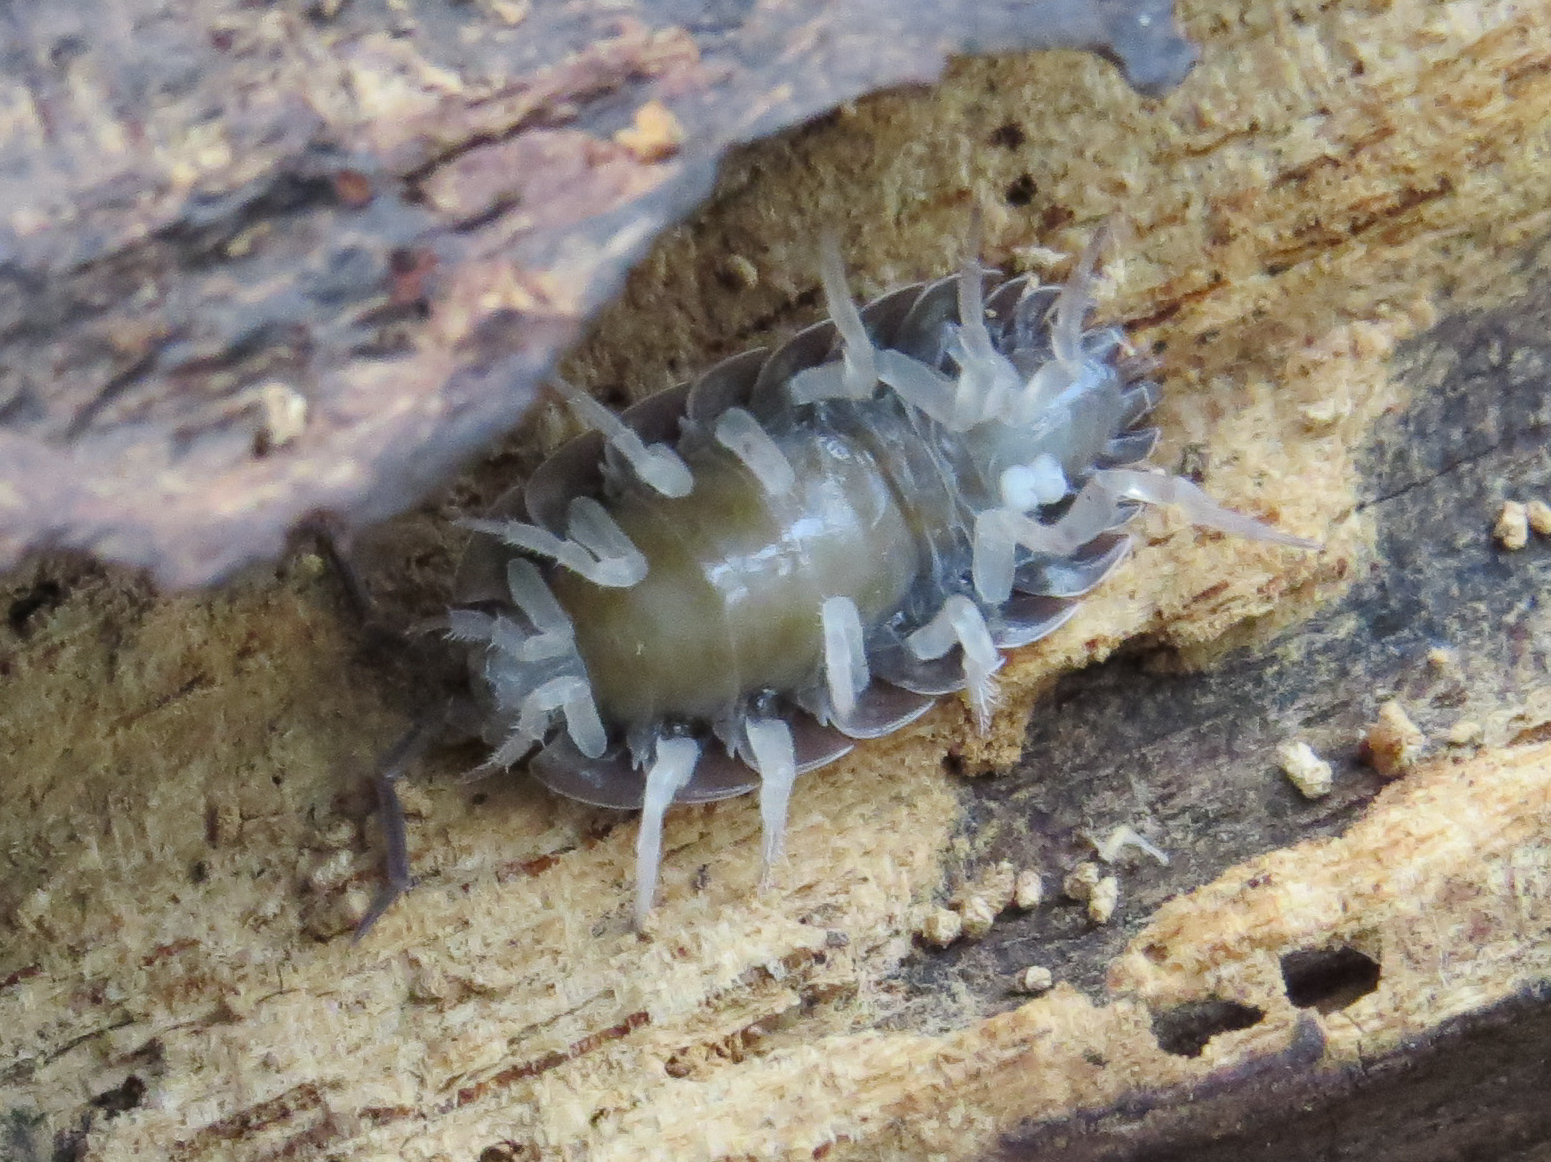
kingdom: Animalia
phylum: Arthropoda
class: Malacostraca
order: Isopoda
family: Porcellionidae
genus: Porcellio
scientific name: Porcellio scaber
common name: Common rough woodlouse
